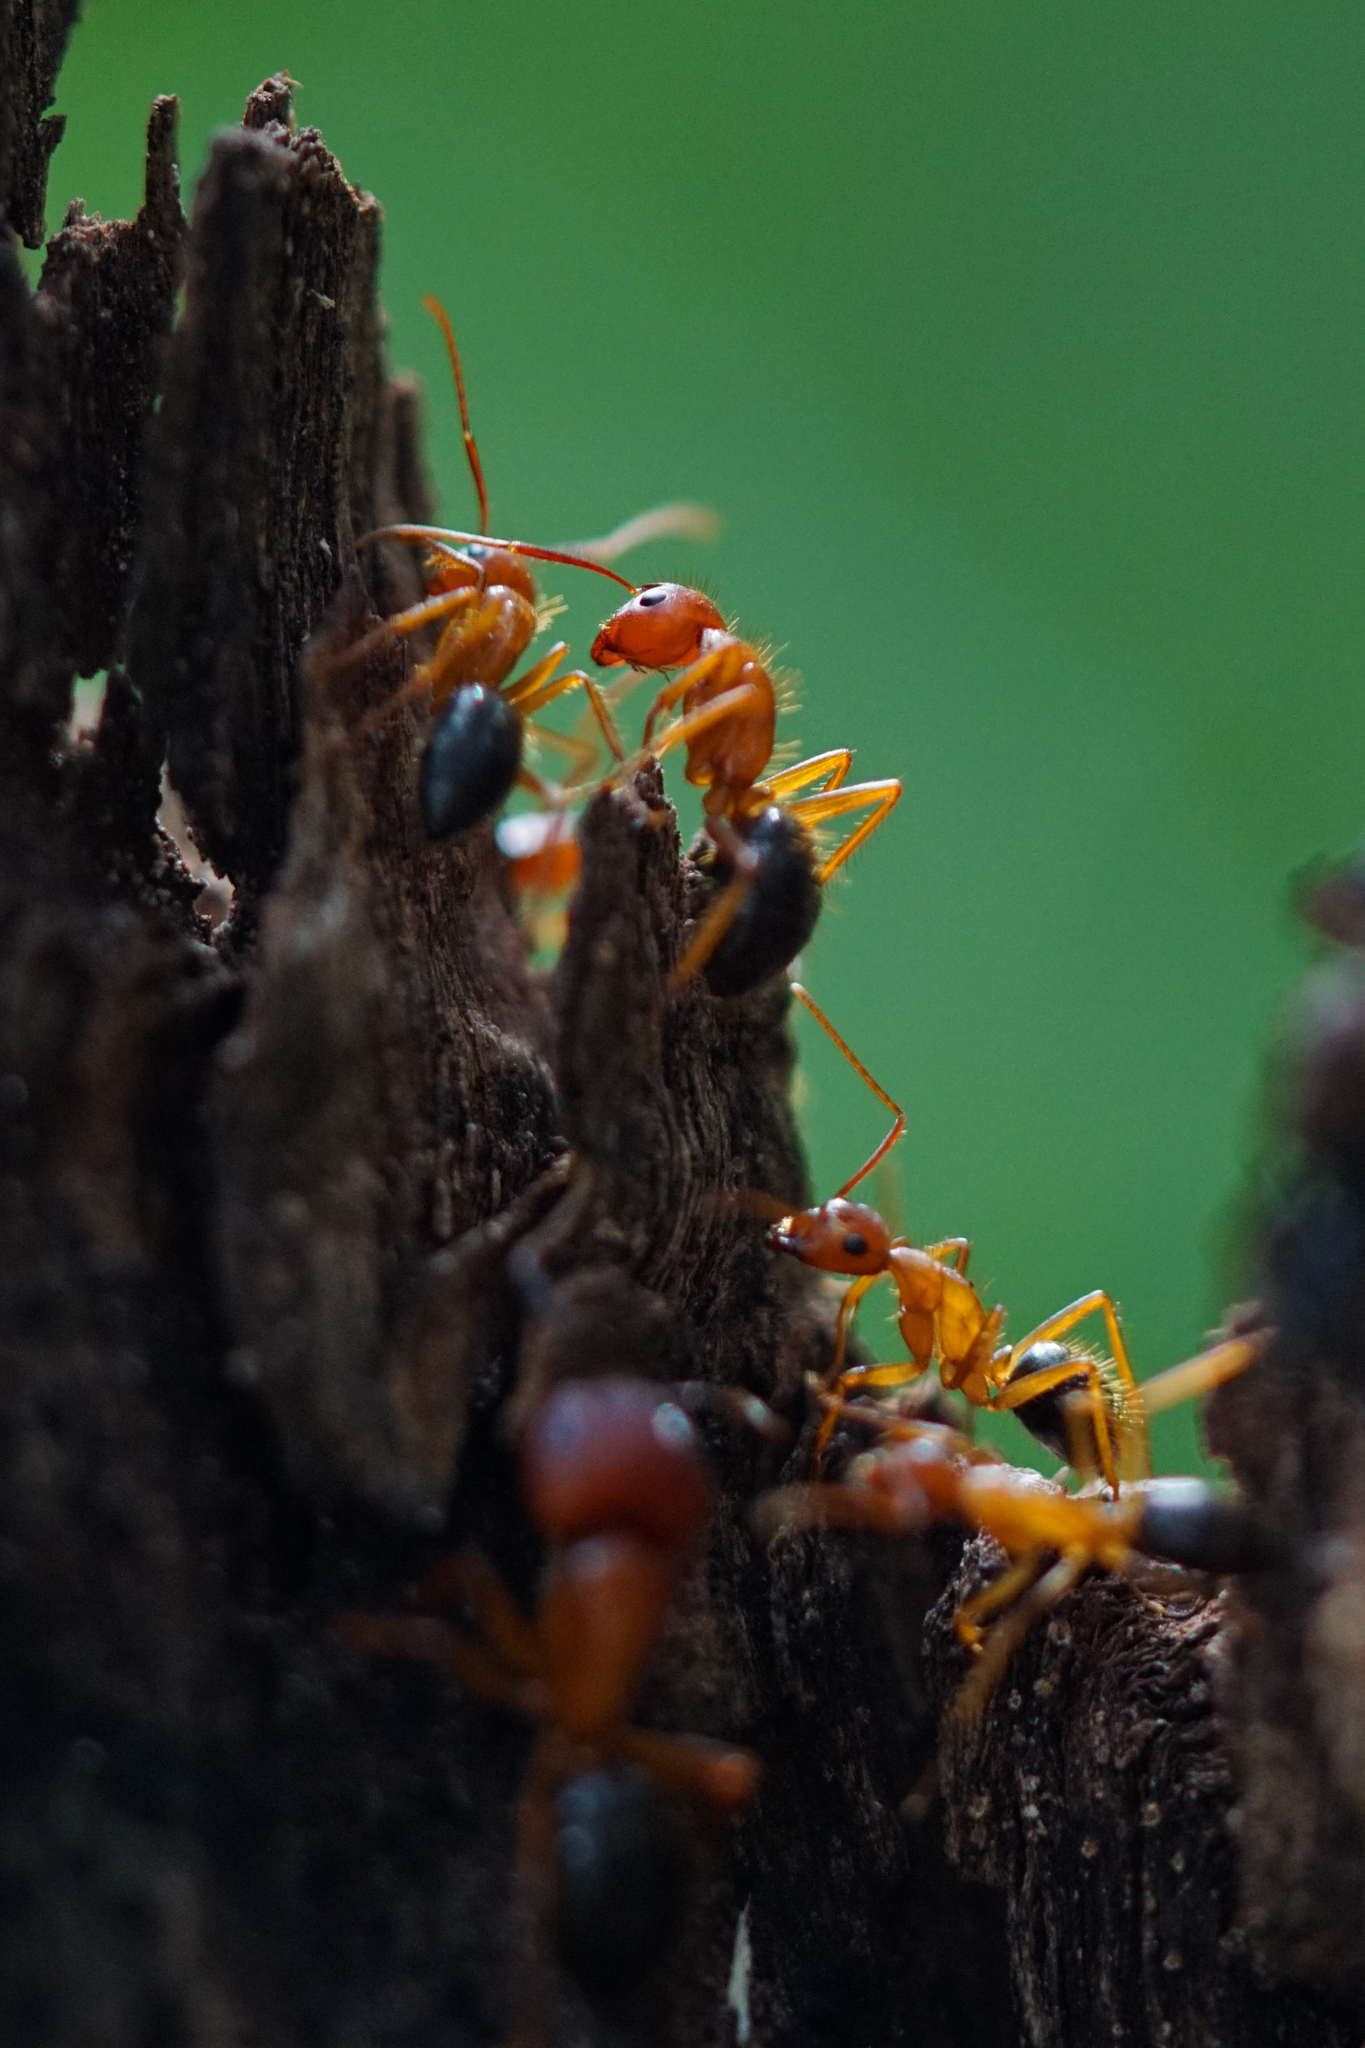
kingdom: Animalia
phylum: Arthropoda
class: Insecta
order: Hymenoptera
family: Formicidae
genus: Camponotus
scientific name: Camponotus floridanus
